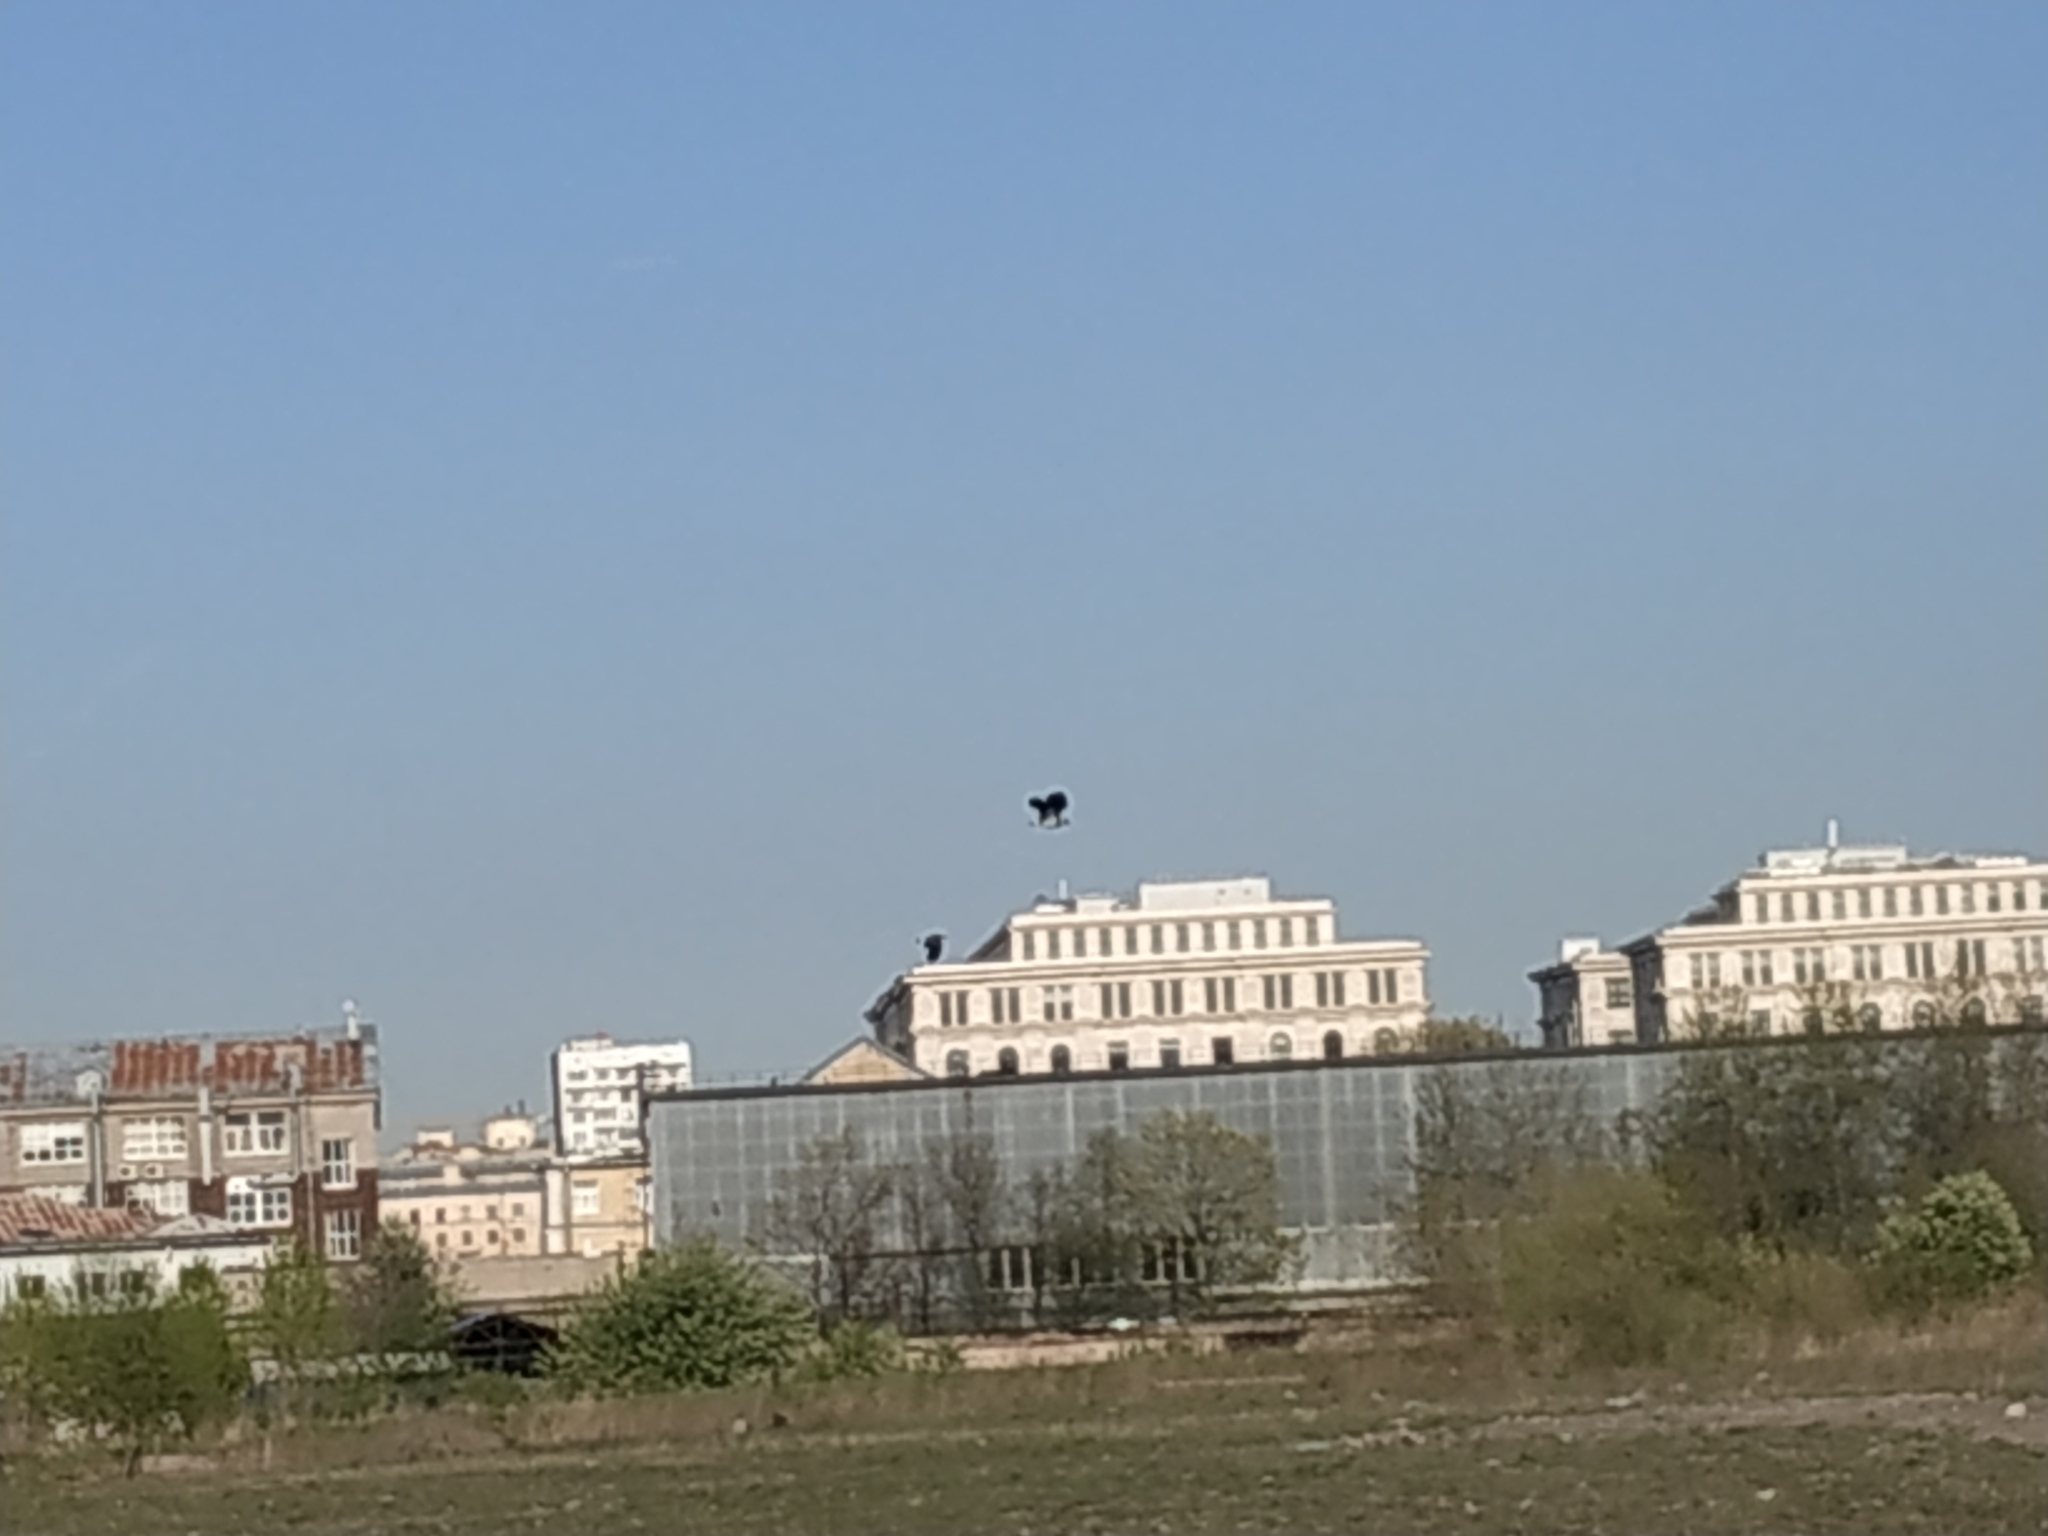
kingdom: Animalia
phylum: Chordata
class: Aves
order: Charadriiformes
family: Charadriidae
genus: Vanellus
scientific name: Vanellus vanellus
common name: Northern lapwing
